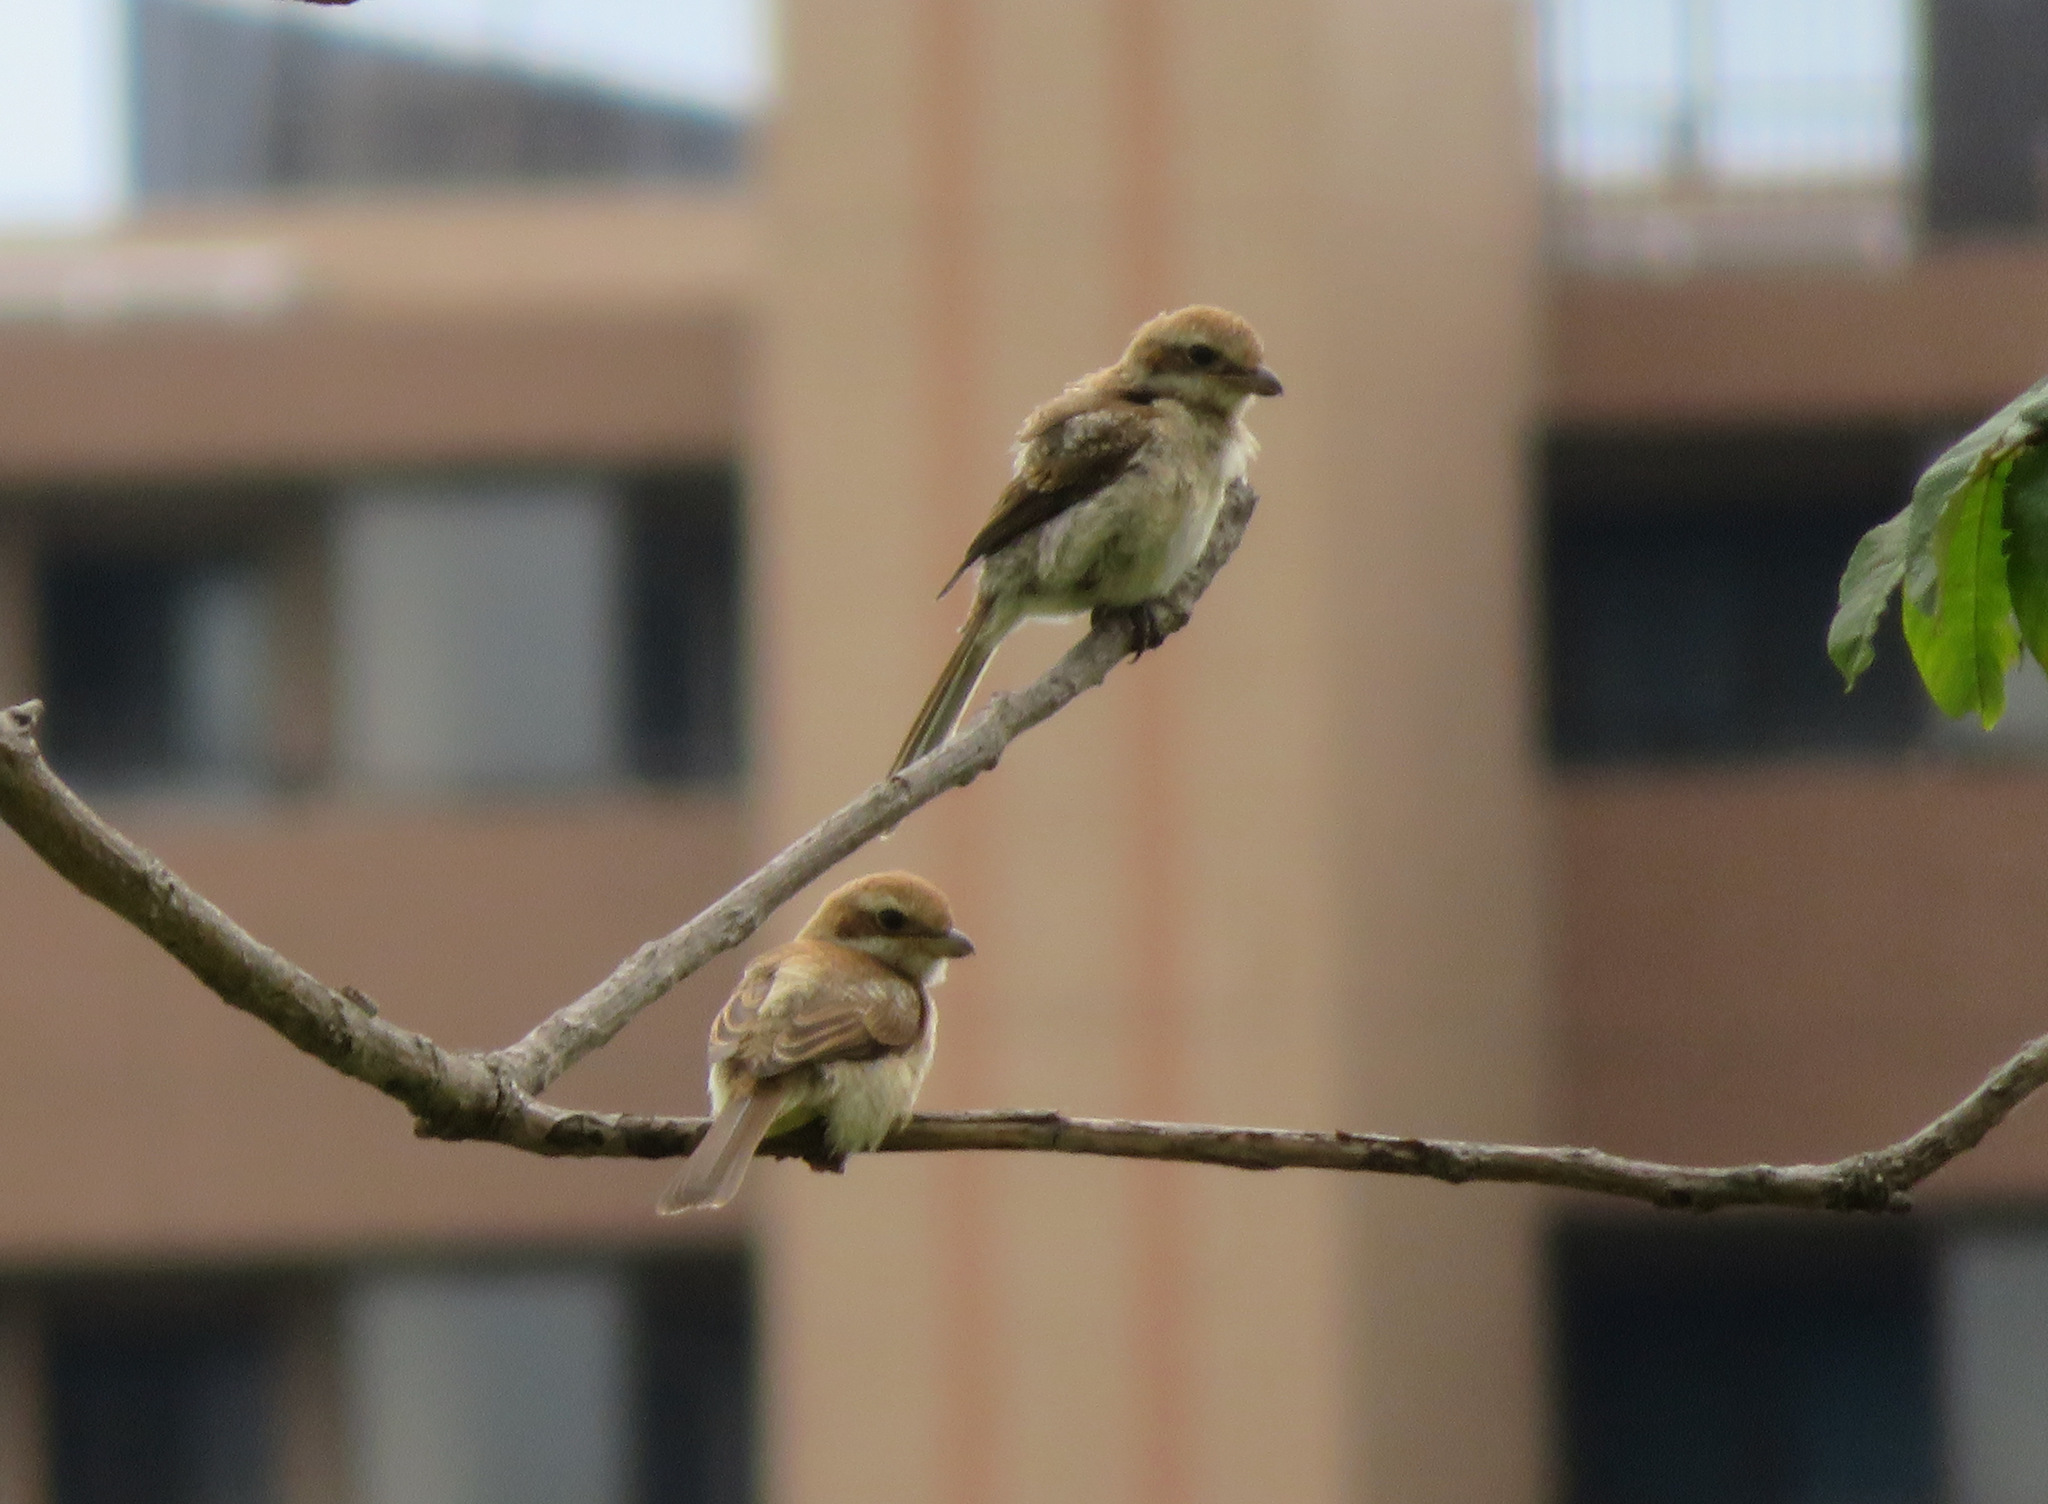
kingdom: Animalia
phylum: Chordata
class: Aves
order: Passeriformes
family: Laniidae
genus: Lanius
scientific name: Lanius bucephalus
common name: Bull-headed shrike
